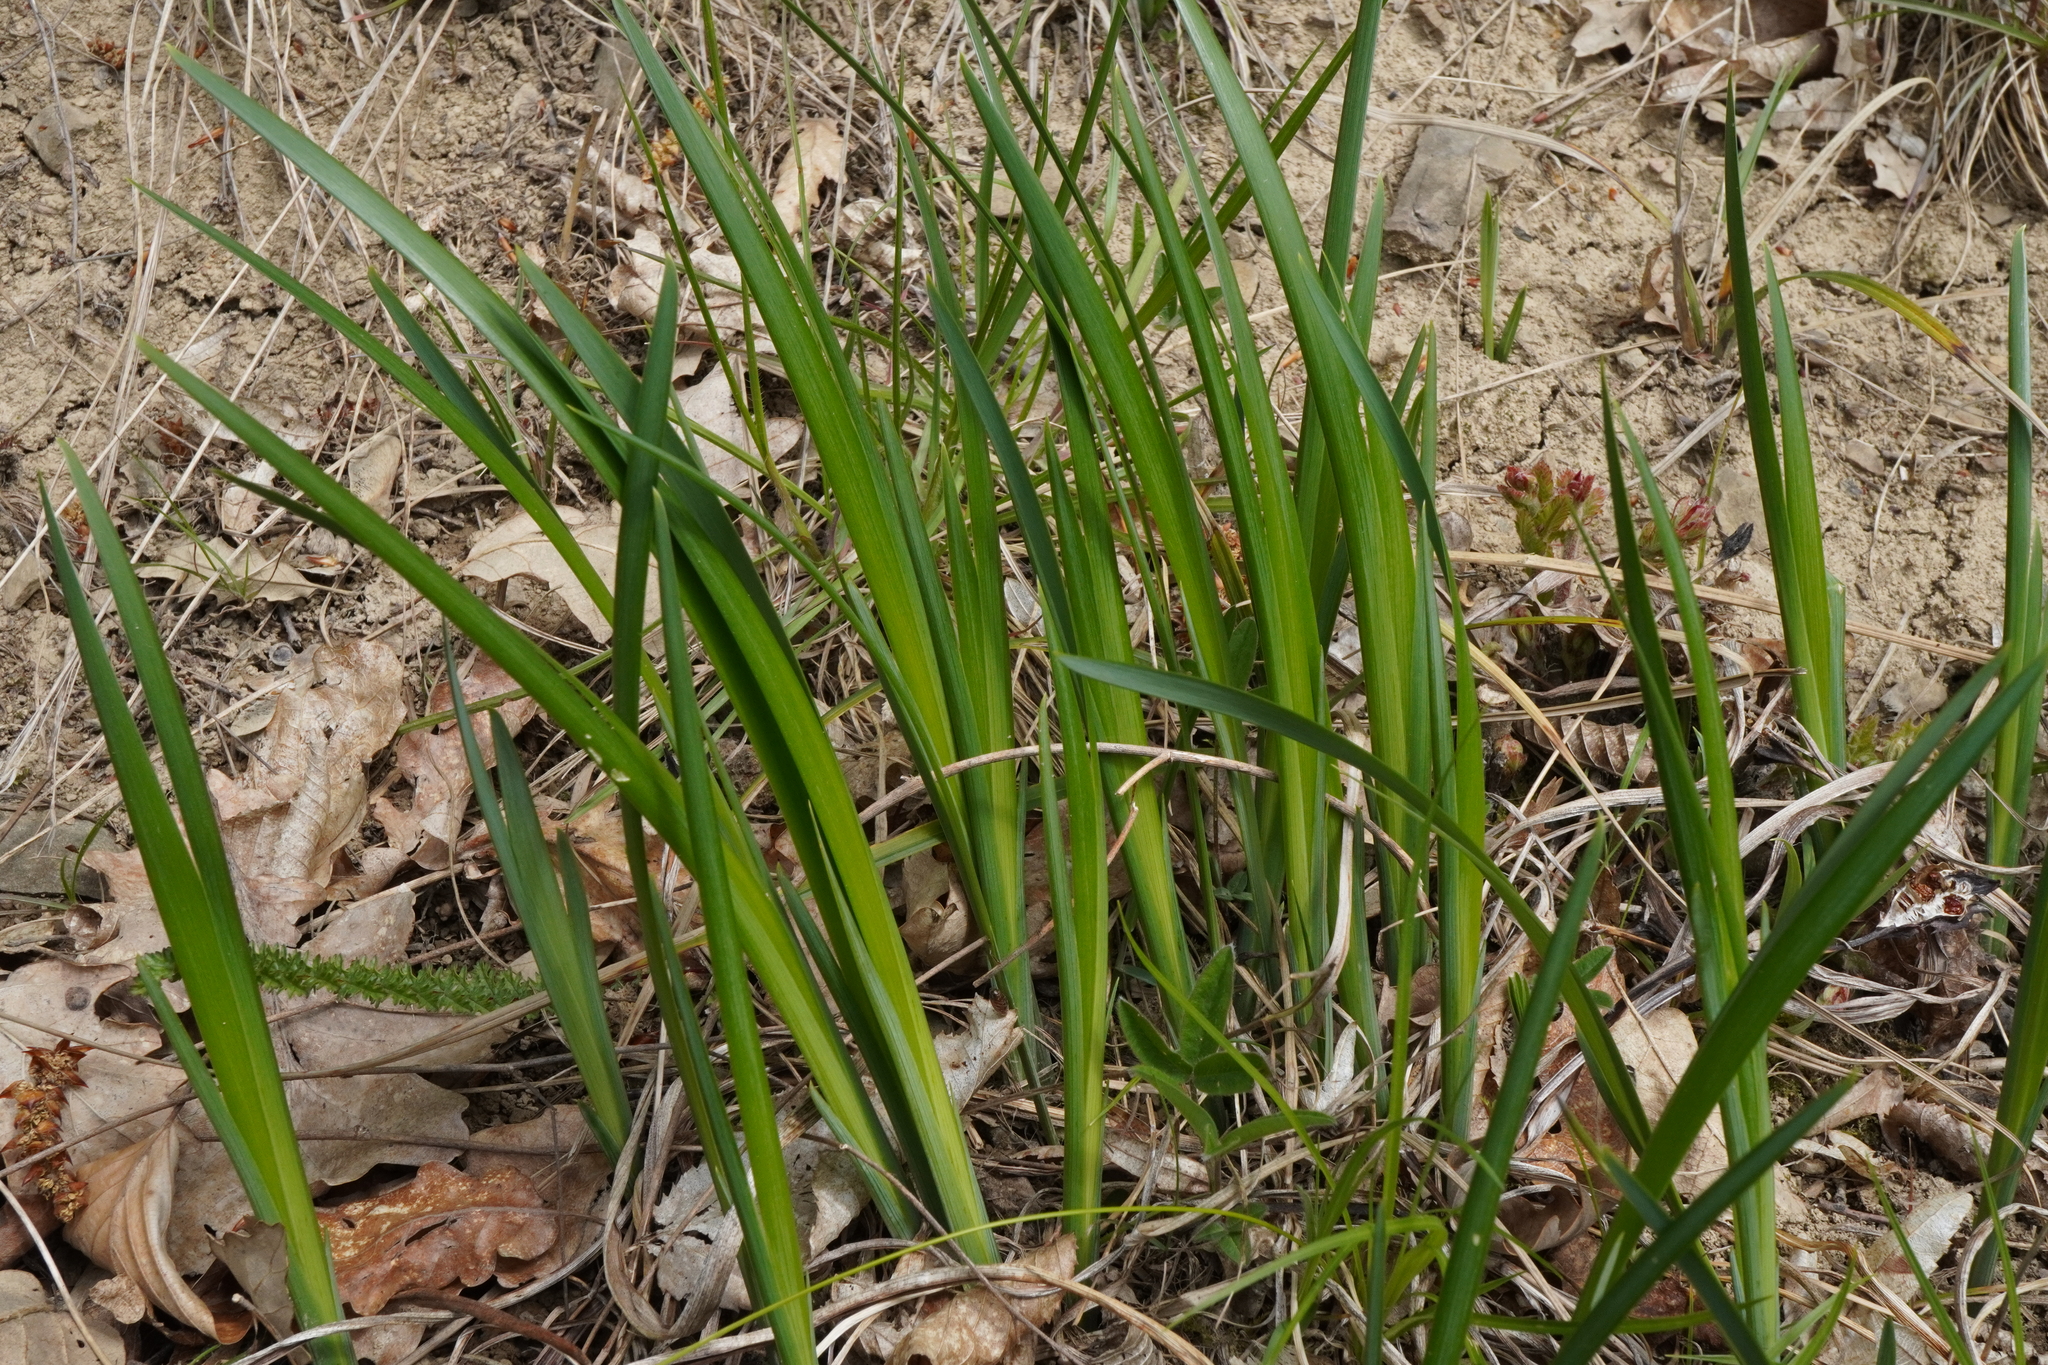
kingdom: Plantae
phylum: Tracheophyta
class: Liliopsida
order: Asparagales
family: Iridaceae
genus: Iris
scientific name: Iris graminea
